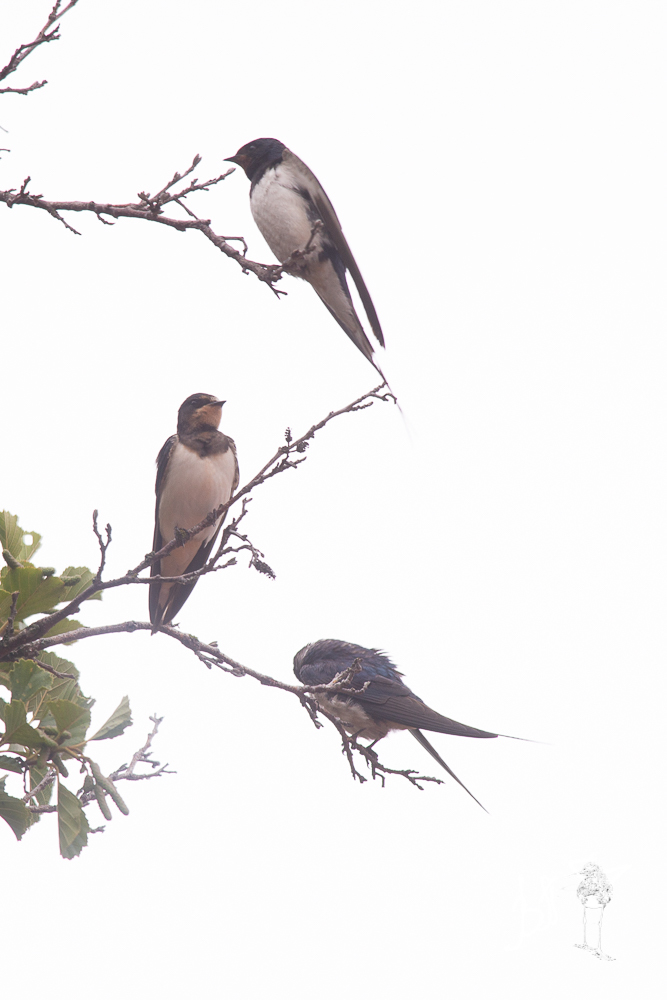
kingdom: Animalia
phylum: Chordata
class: Aves
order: Passeriformes
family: Hirundinidae
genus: Hirundo
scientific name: Hirundo rustica
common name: Barn swallow
